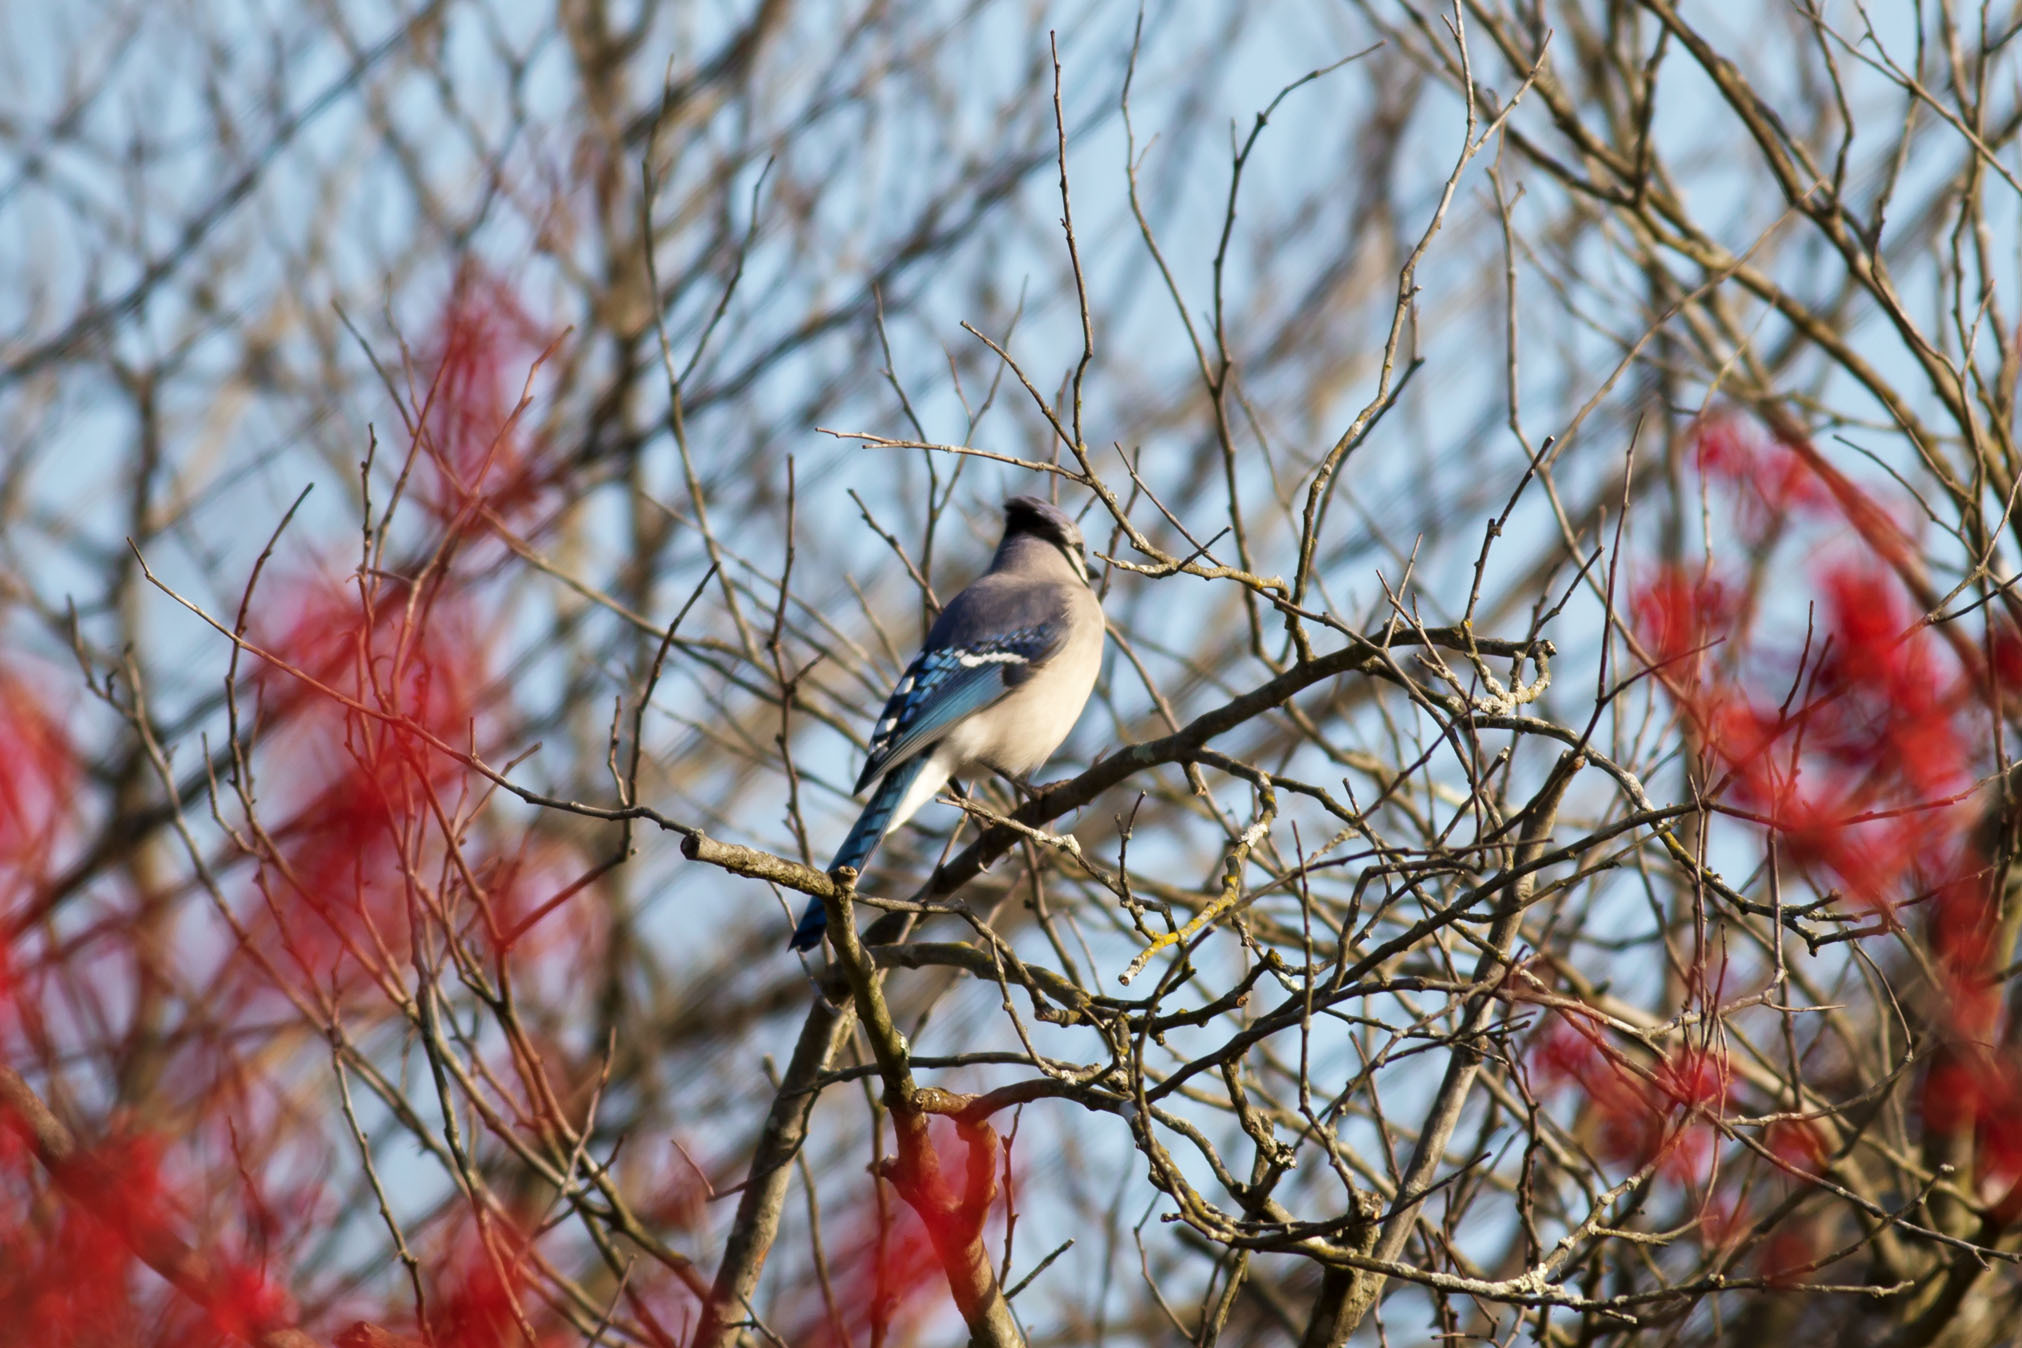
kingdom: Animalia
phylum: Chordata
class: Aves
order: Passeriformes
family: Corvidae
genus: Cyanocitta
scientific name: Cyanocitta cristata
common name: Blue jay
